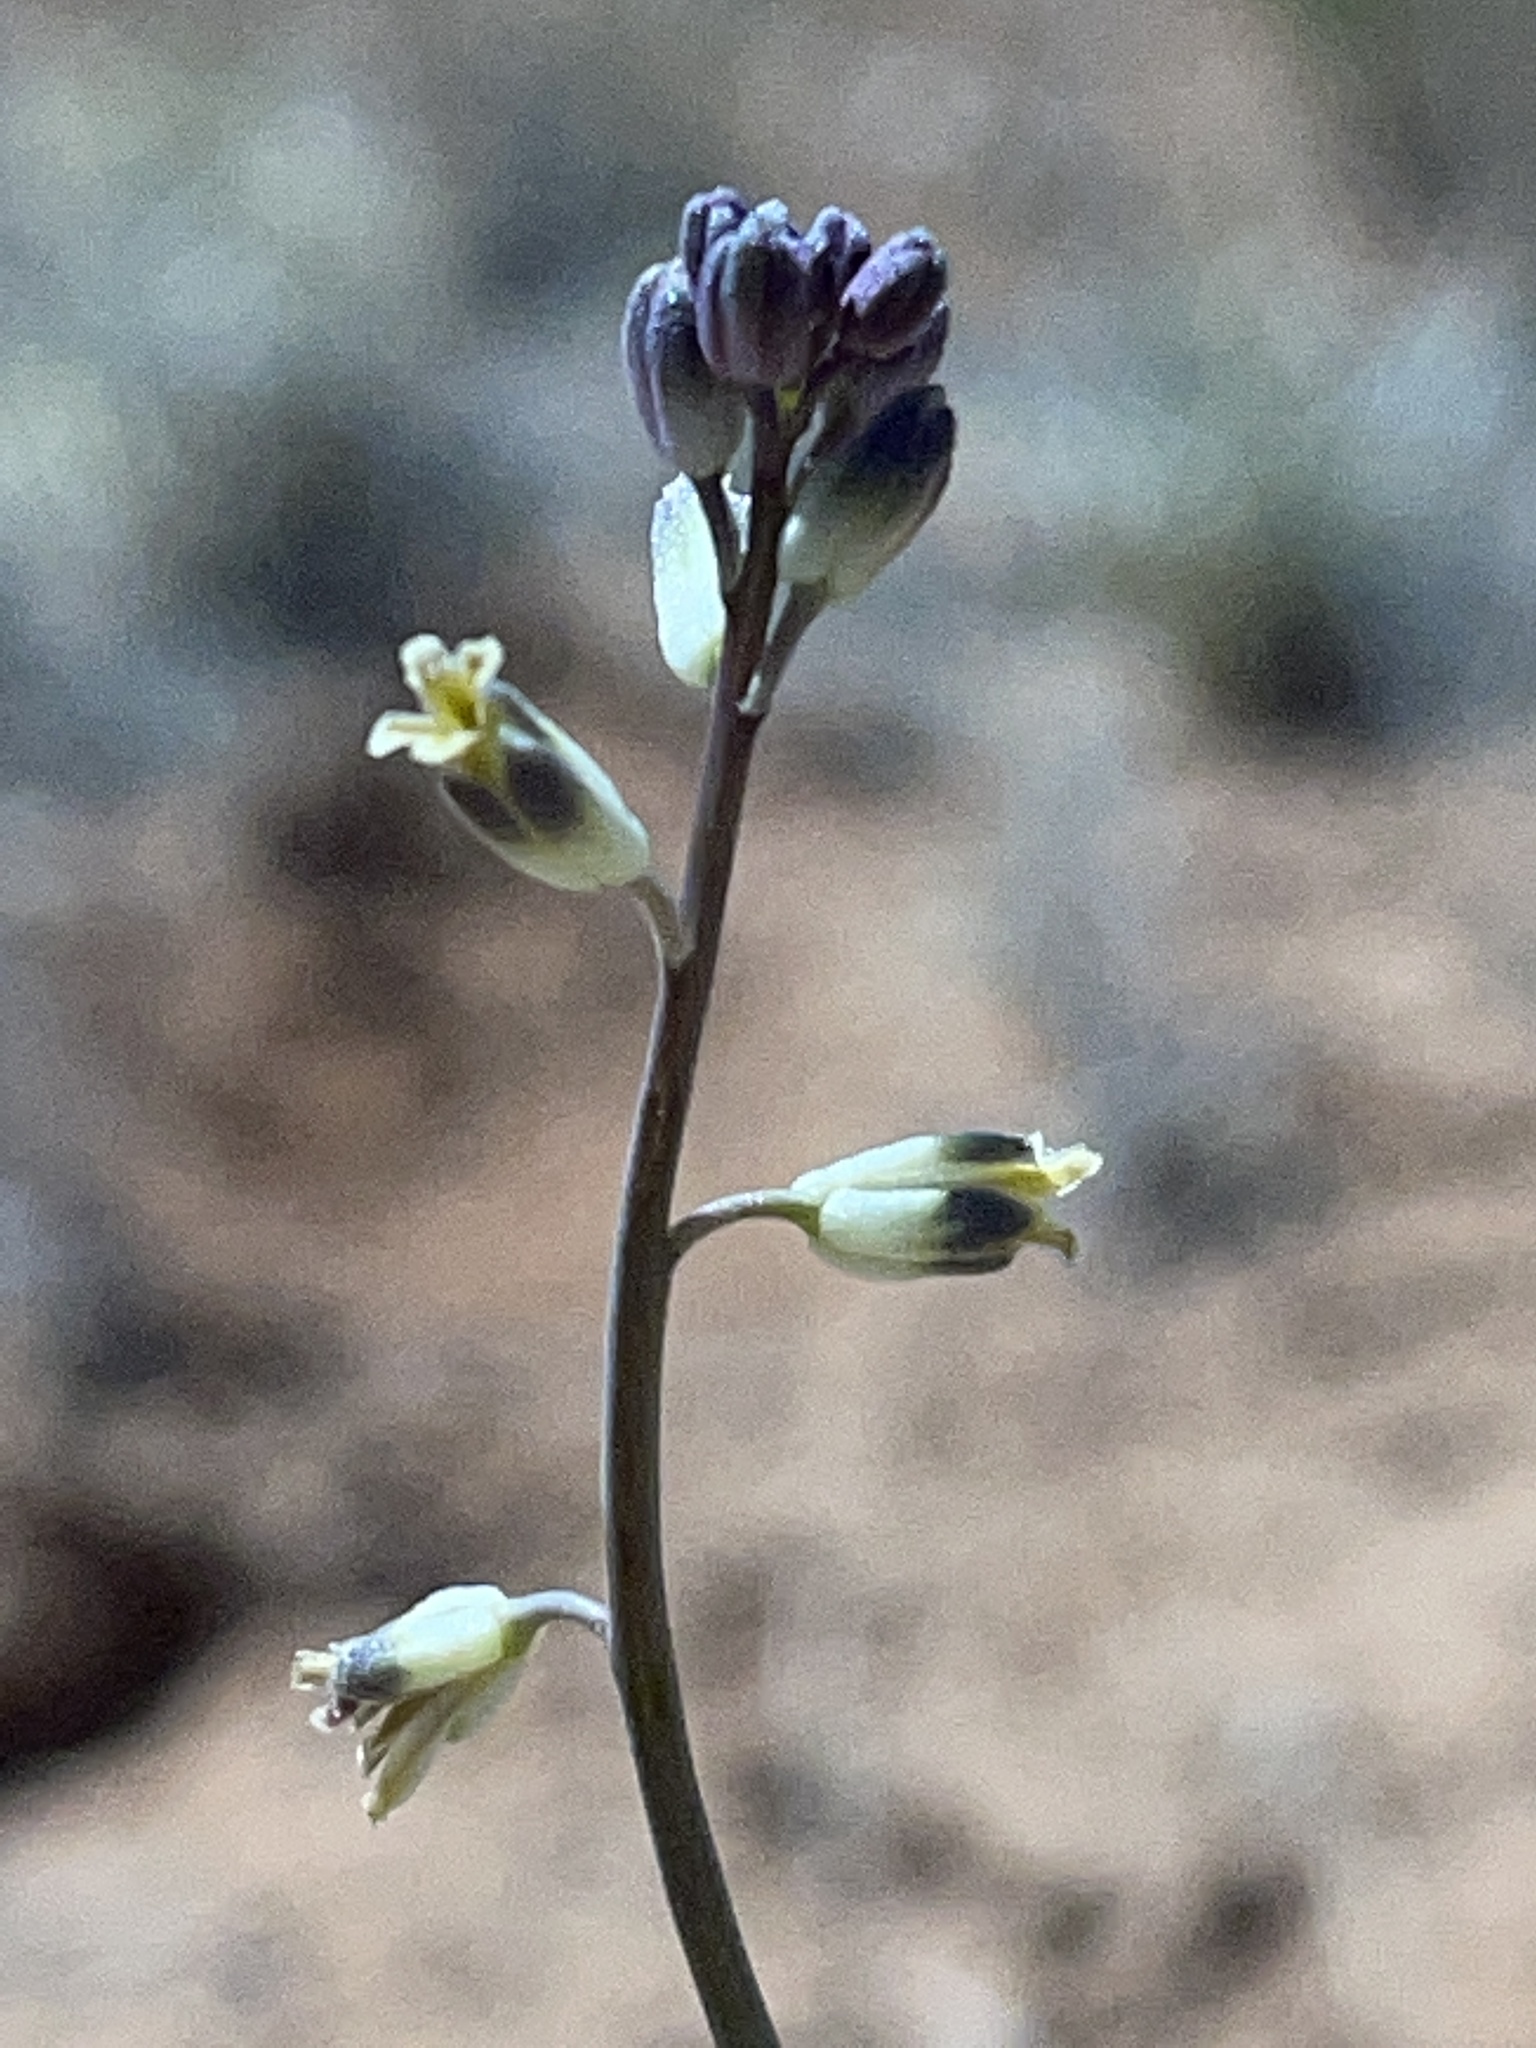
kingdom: Plantae
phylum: Tracheophyta
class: Magnoliopsida
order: Brassicales
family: Brassicaceae
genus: Streptanthus
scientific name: Streptanthus longirostris
